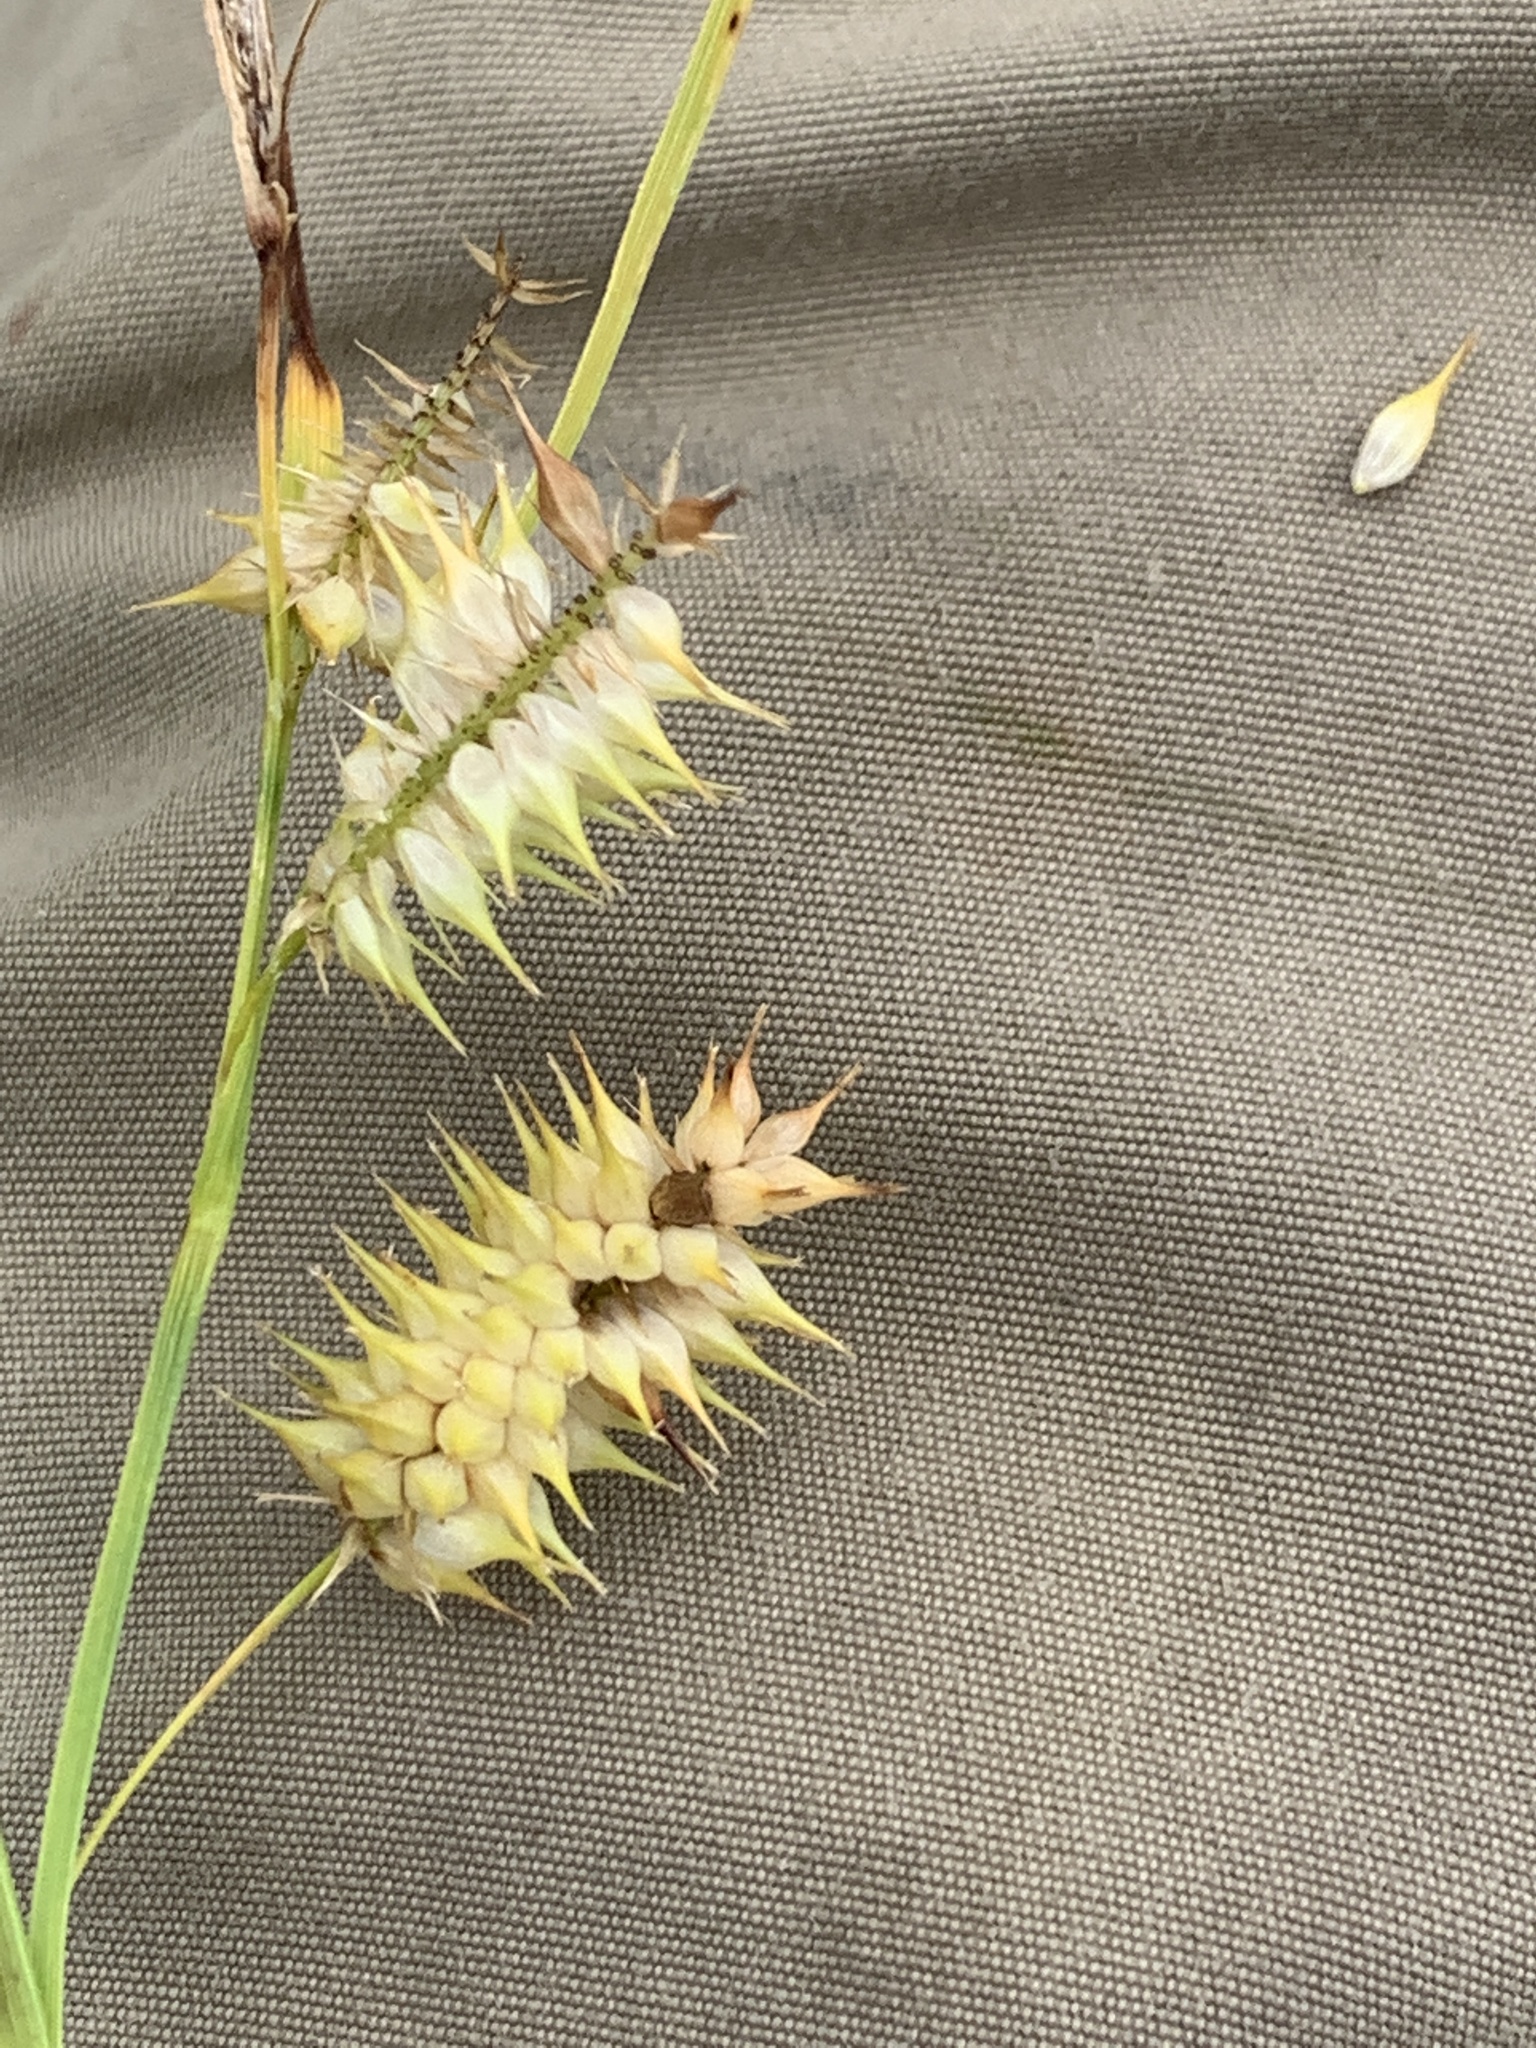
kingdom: Plantae
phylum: Tracheophyta
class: Liliopsida
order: Poales
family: Cyperaceae
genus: Carex
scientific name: Carex hystericina
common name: Bottlebrush sedge
